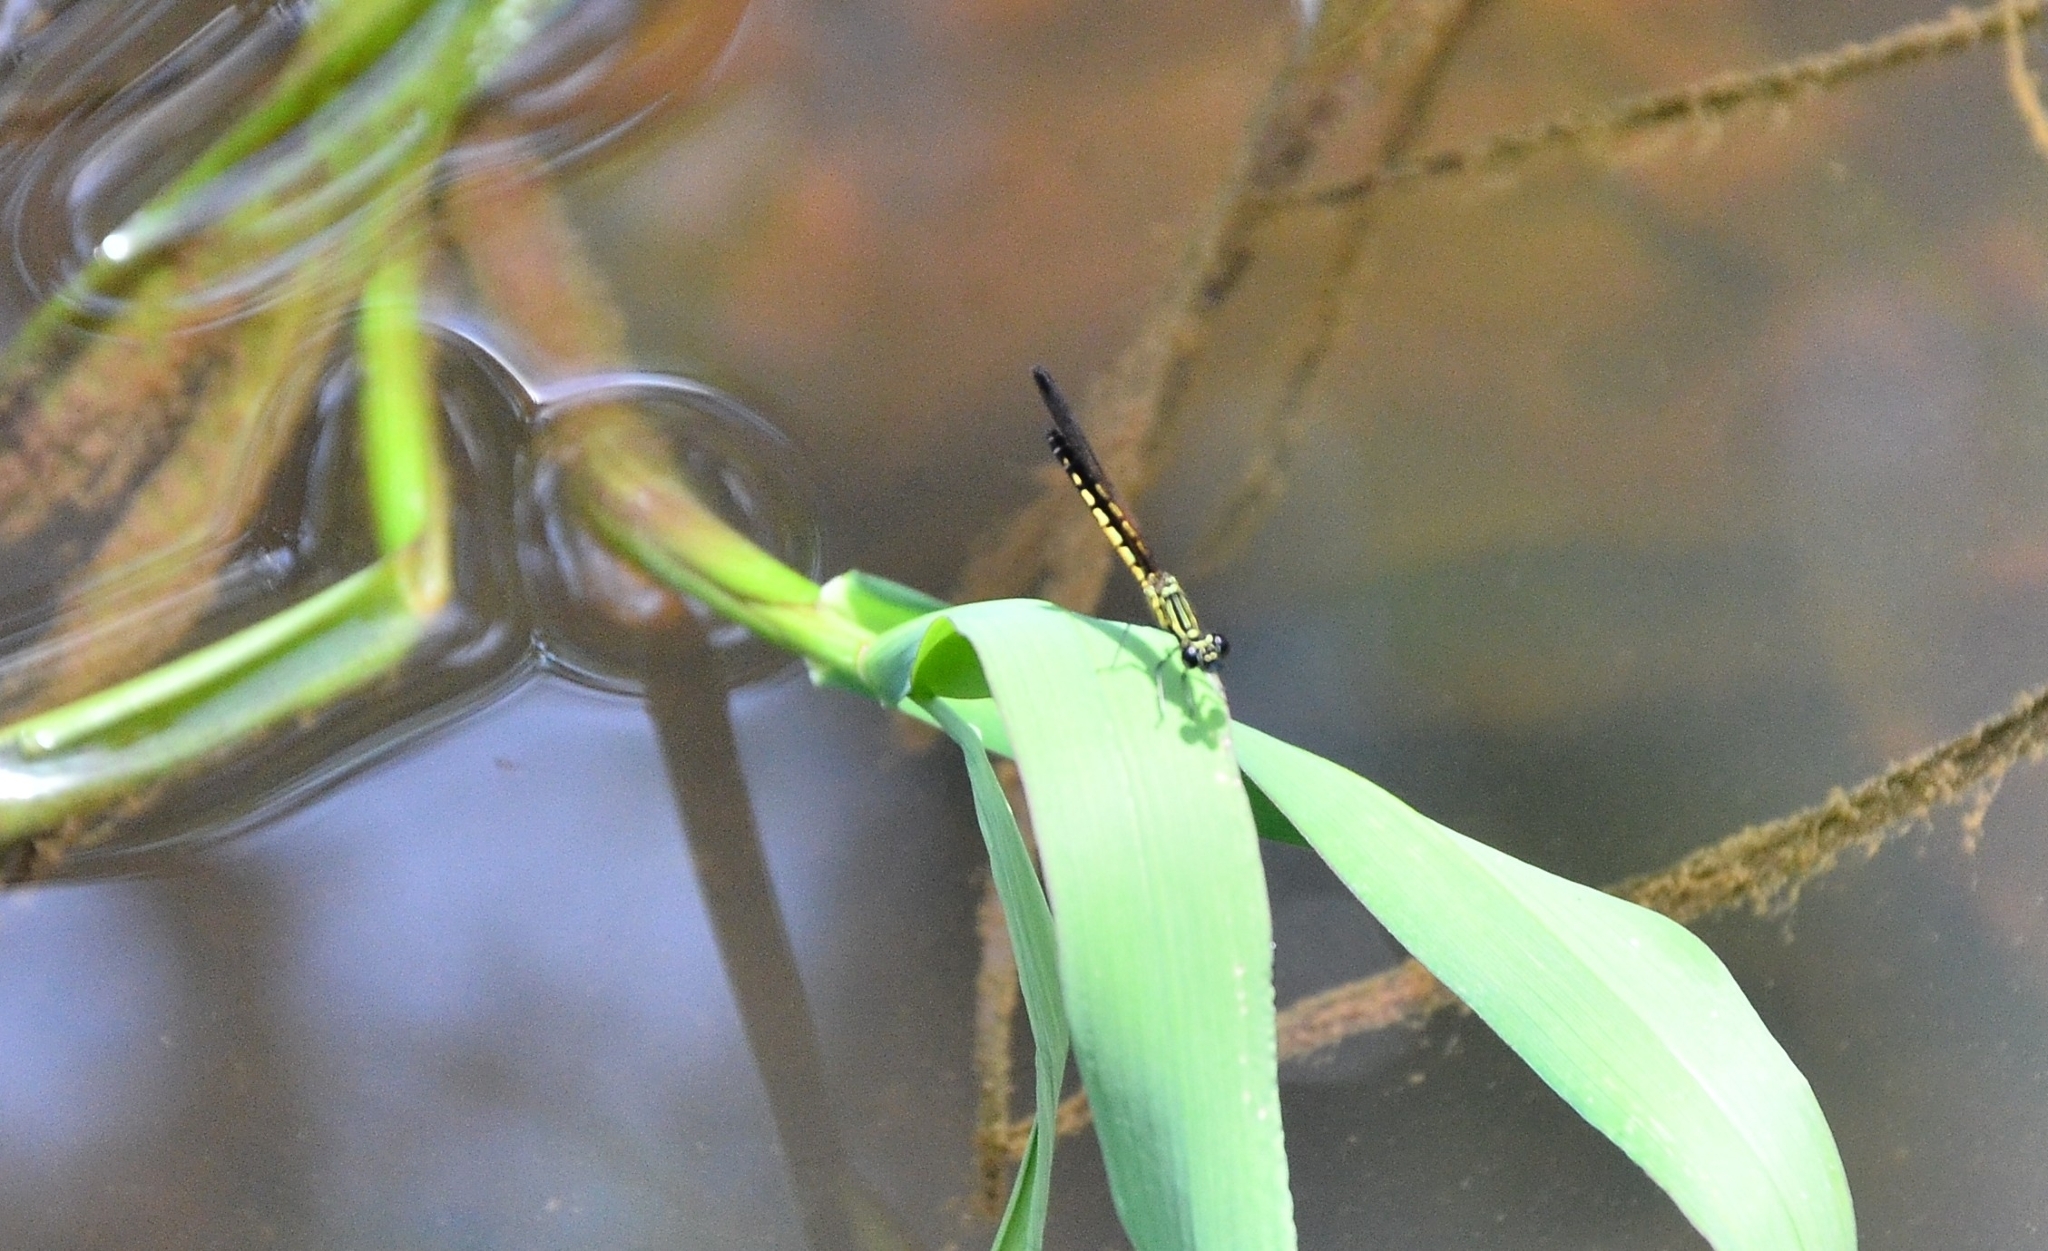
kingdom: Animalia
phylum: Arthropoda
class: Insecta
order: Odonata
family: Chlorocyphidae
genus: Libellago
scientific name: Libellago indica
